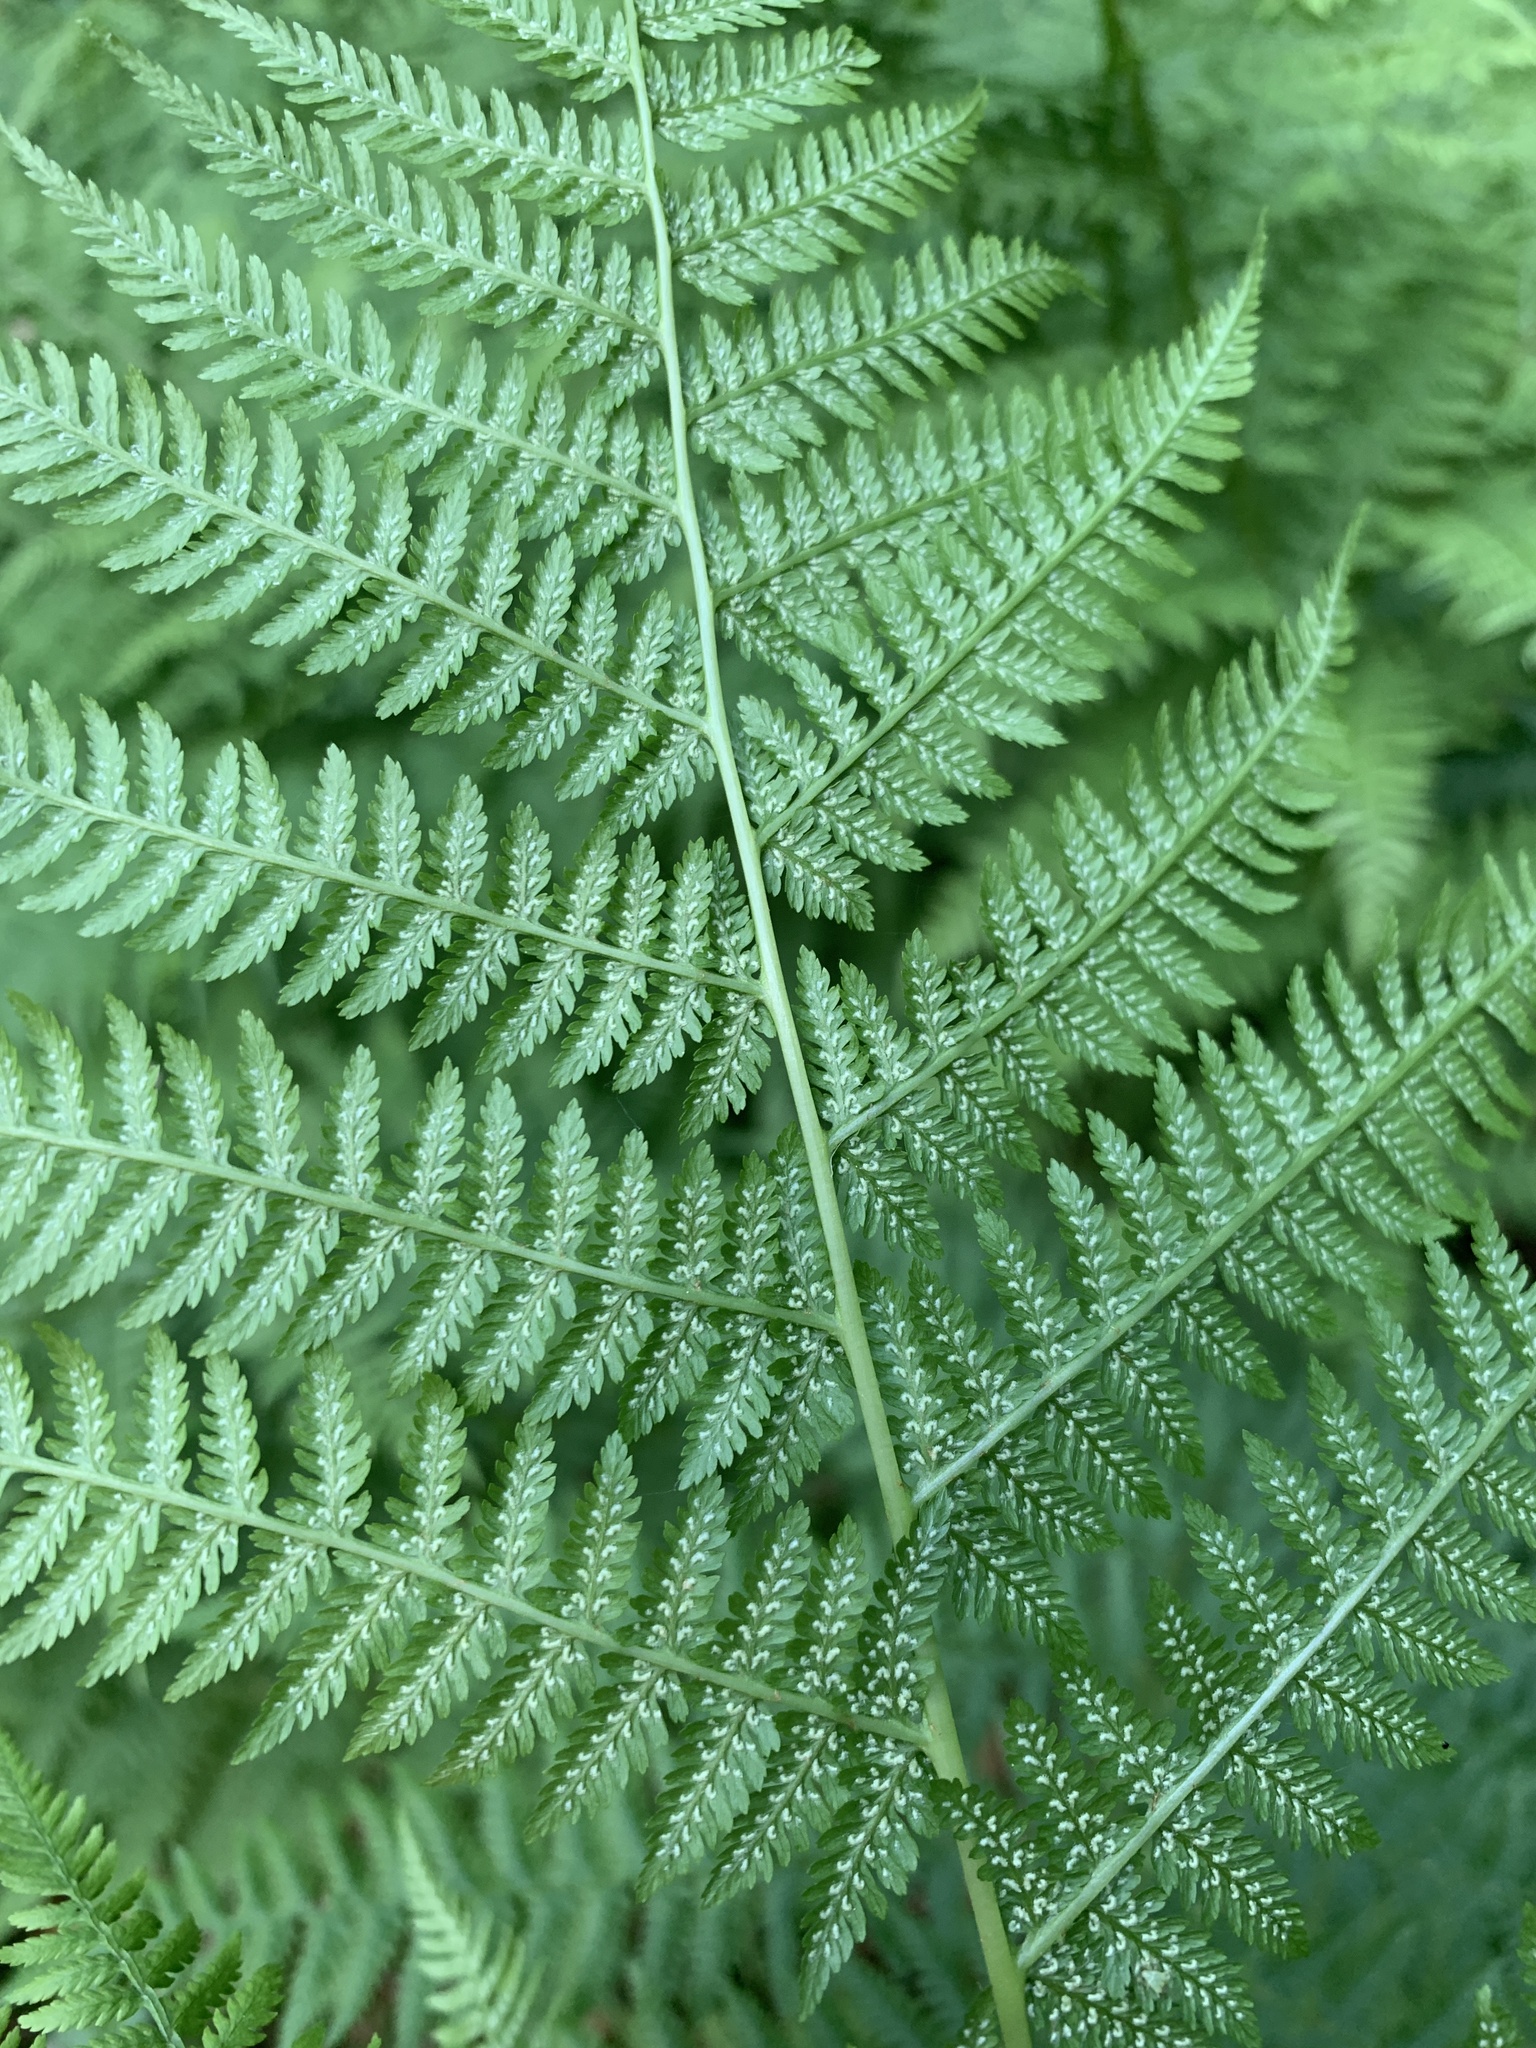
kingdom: Plantae
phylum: Tracheophyta
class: Polypodiopsida
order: Polypodiales
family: Athyriaceae
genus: Athyrium
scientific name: Athyrium filix-femina
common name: Lady fern
